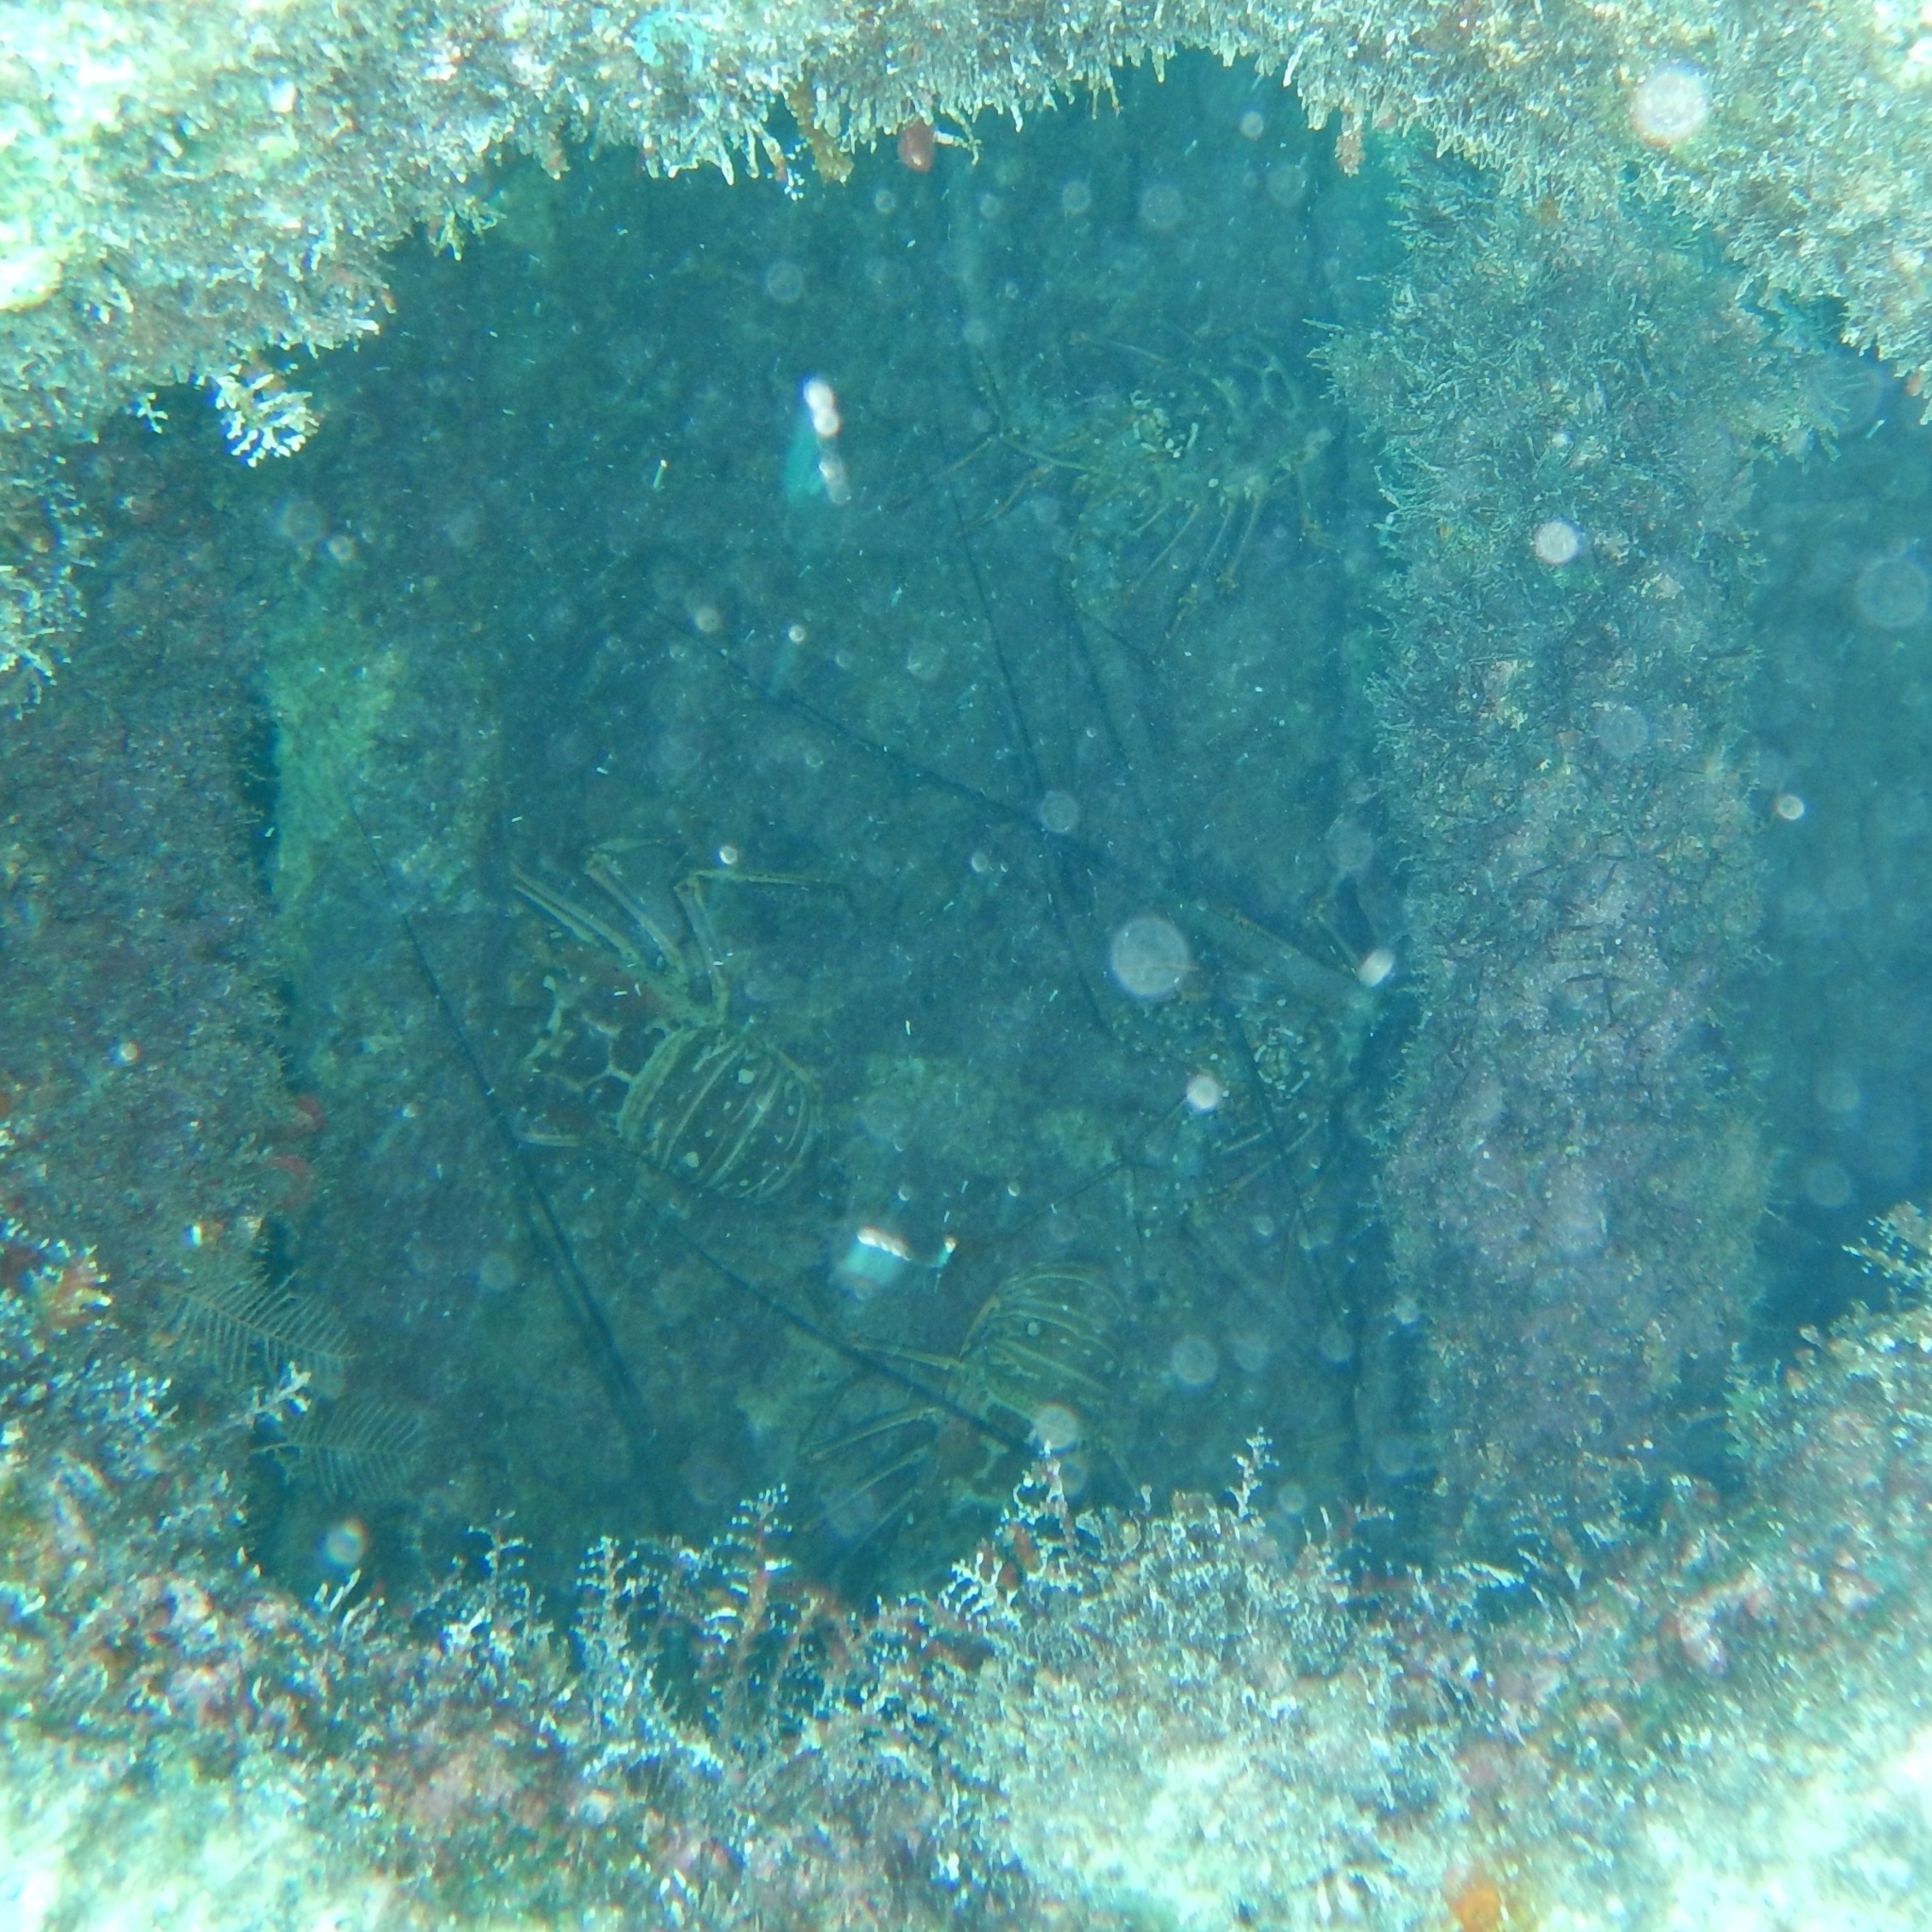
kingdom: Animalia
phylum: Arthropoda
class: Malacostraca
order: Decapoda
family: Palinuridae
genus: Panulirus
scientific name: Panulirus argus
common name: Caribbean spiny lobster
